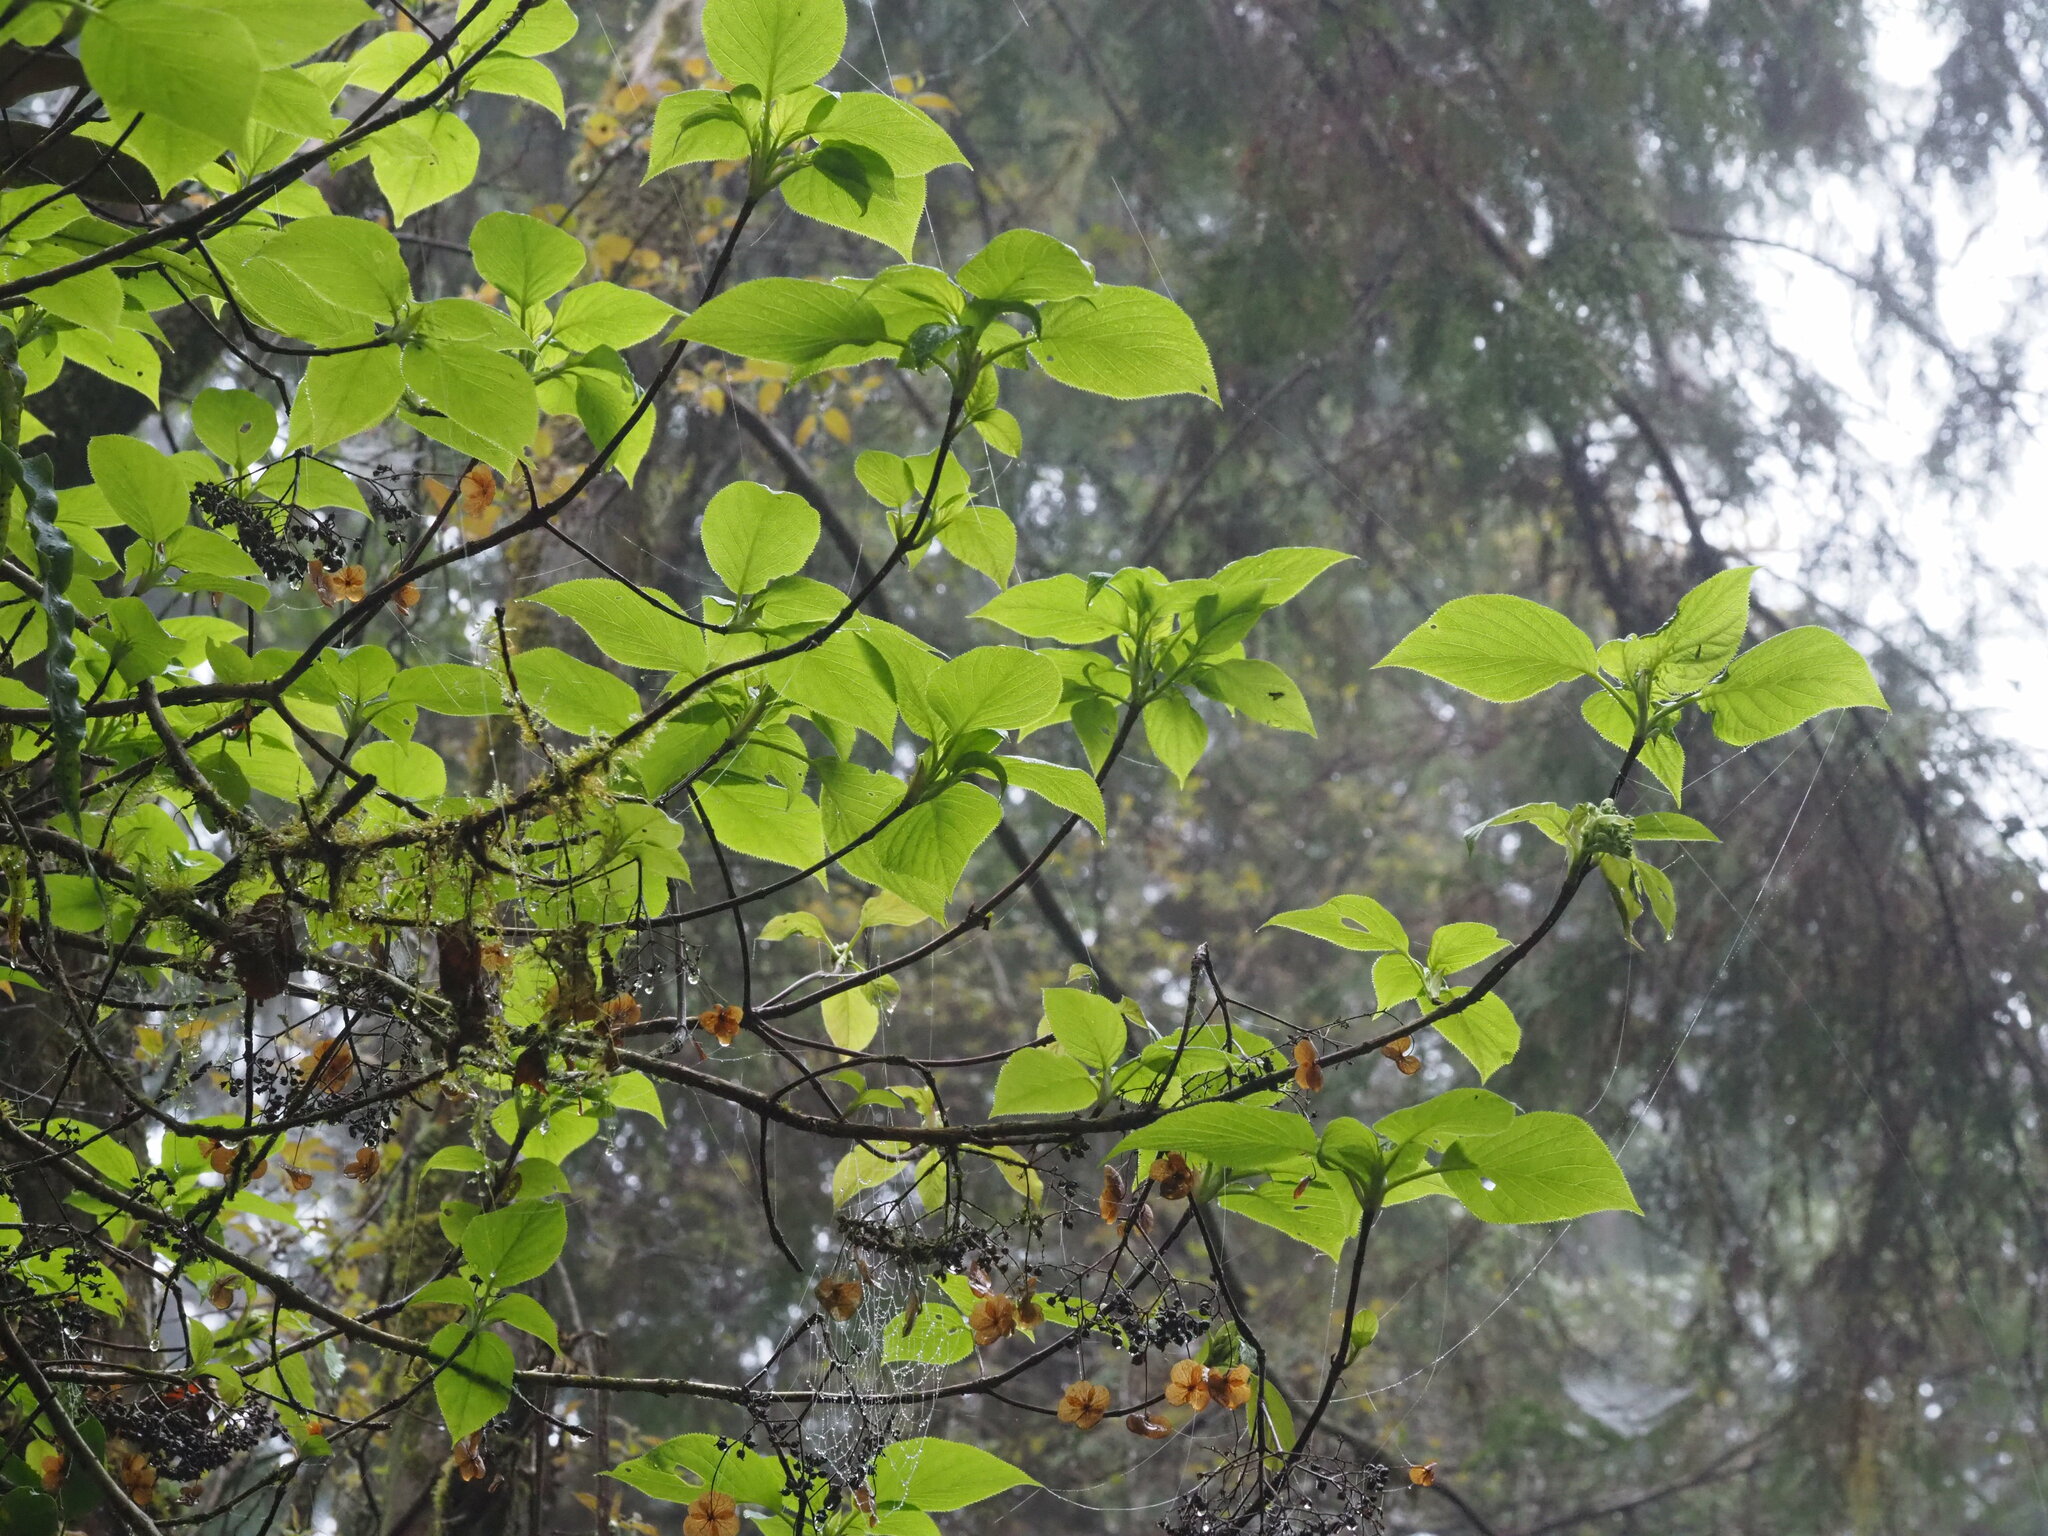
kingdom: Plantae
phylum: Tracheophyta
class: Magnoliopsida
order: Dipsacales
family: Viburnaceae
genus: Viburnum
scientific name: Viburnum furcatum
